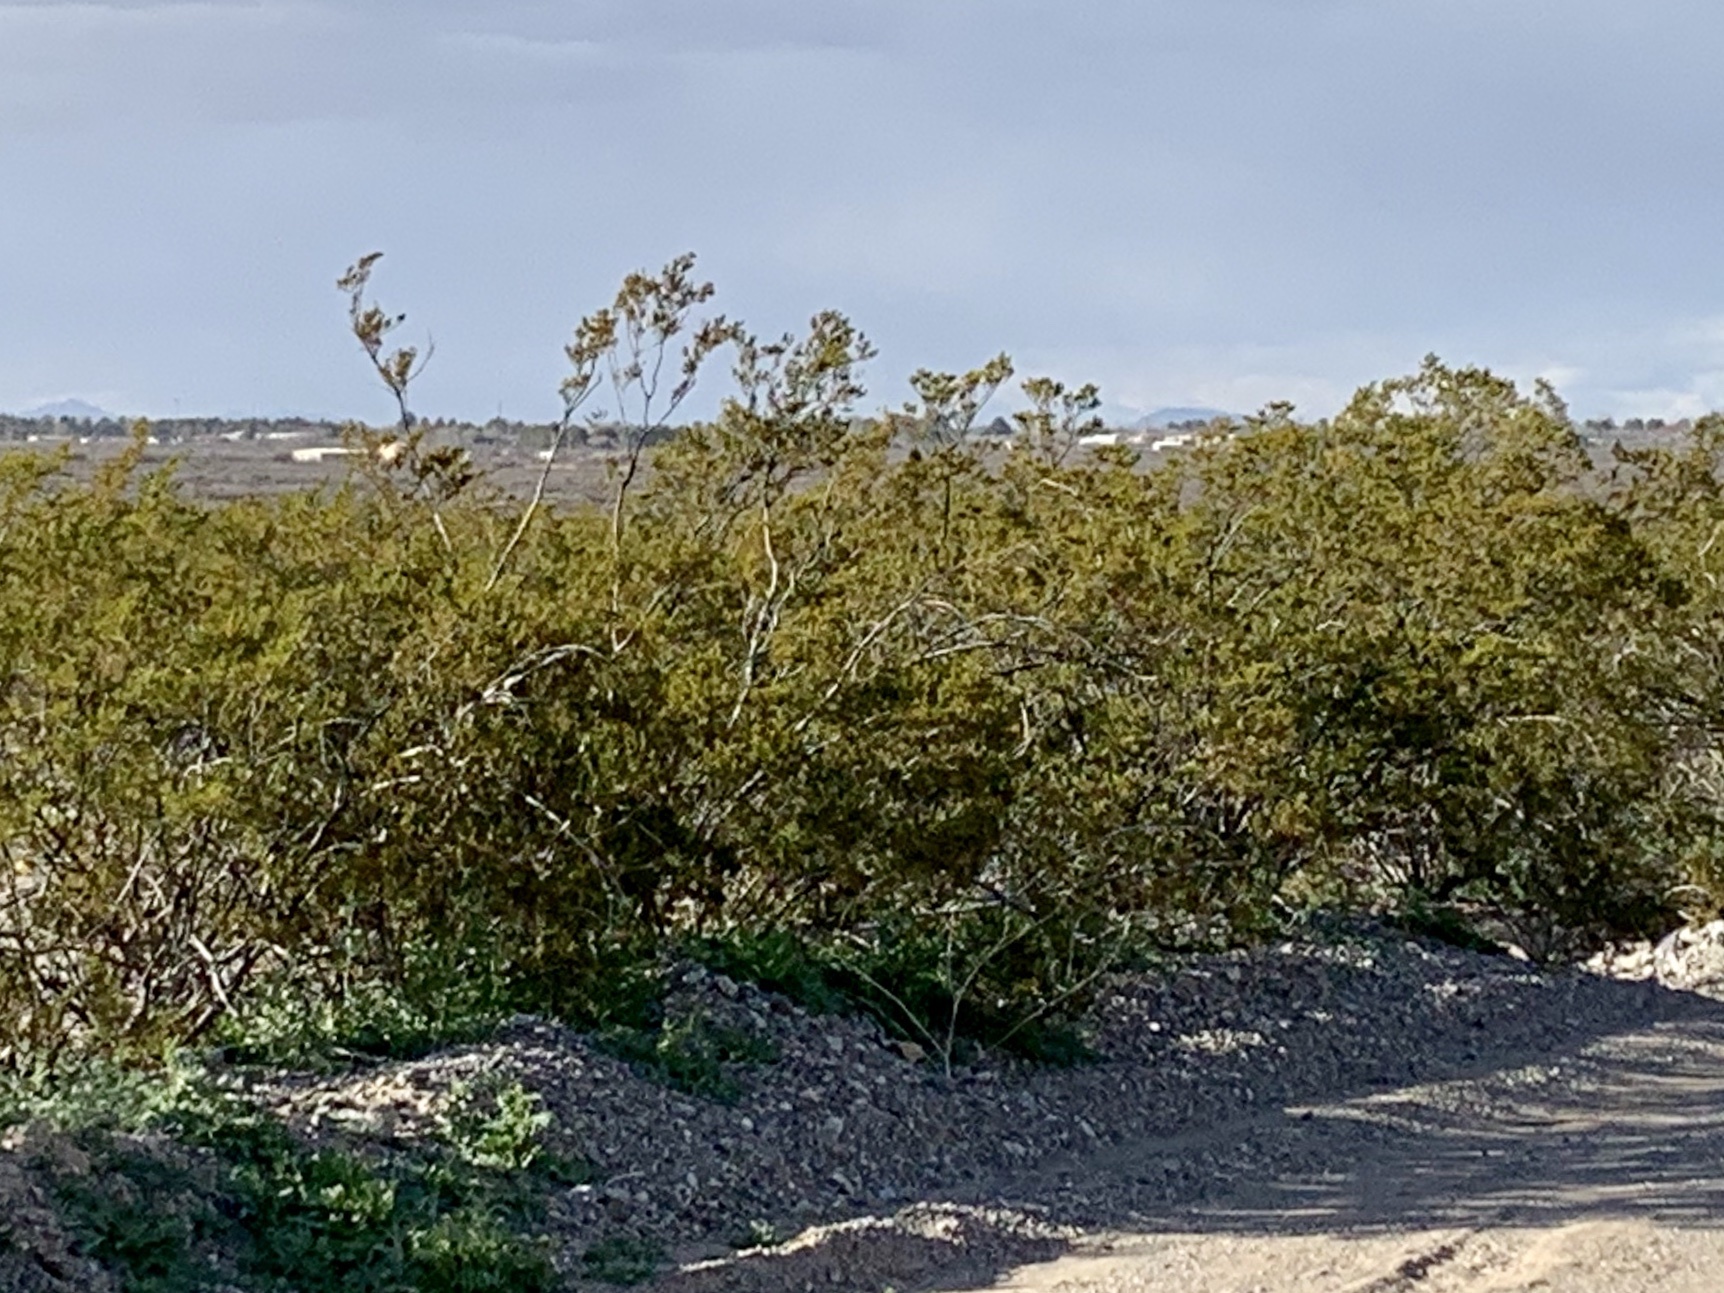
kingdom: Plantae
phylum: Tracheophyta
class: Magnoliopsida
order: Zygophyllales
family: Zygophyllaceae
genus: Larrea
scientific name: Larrea tridentata
